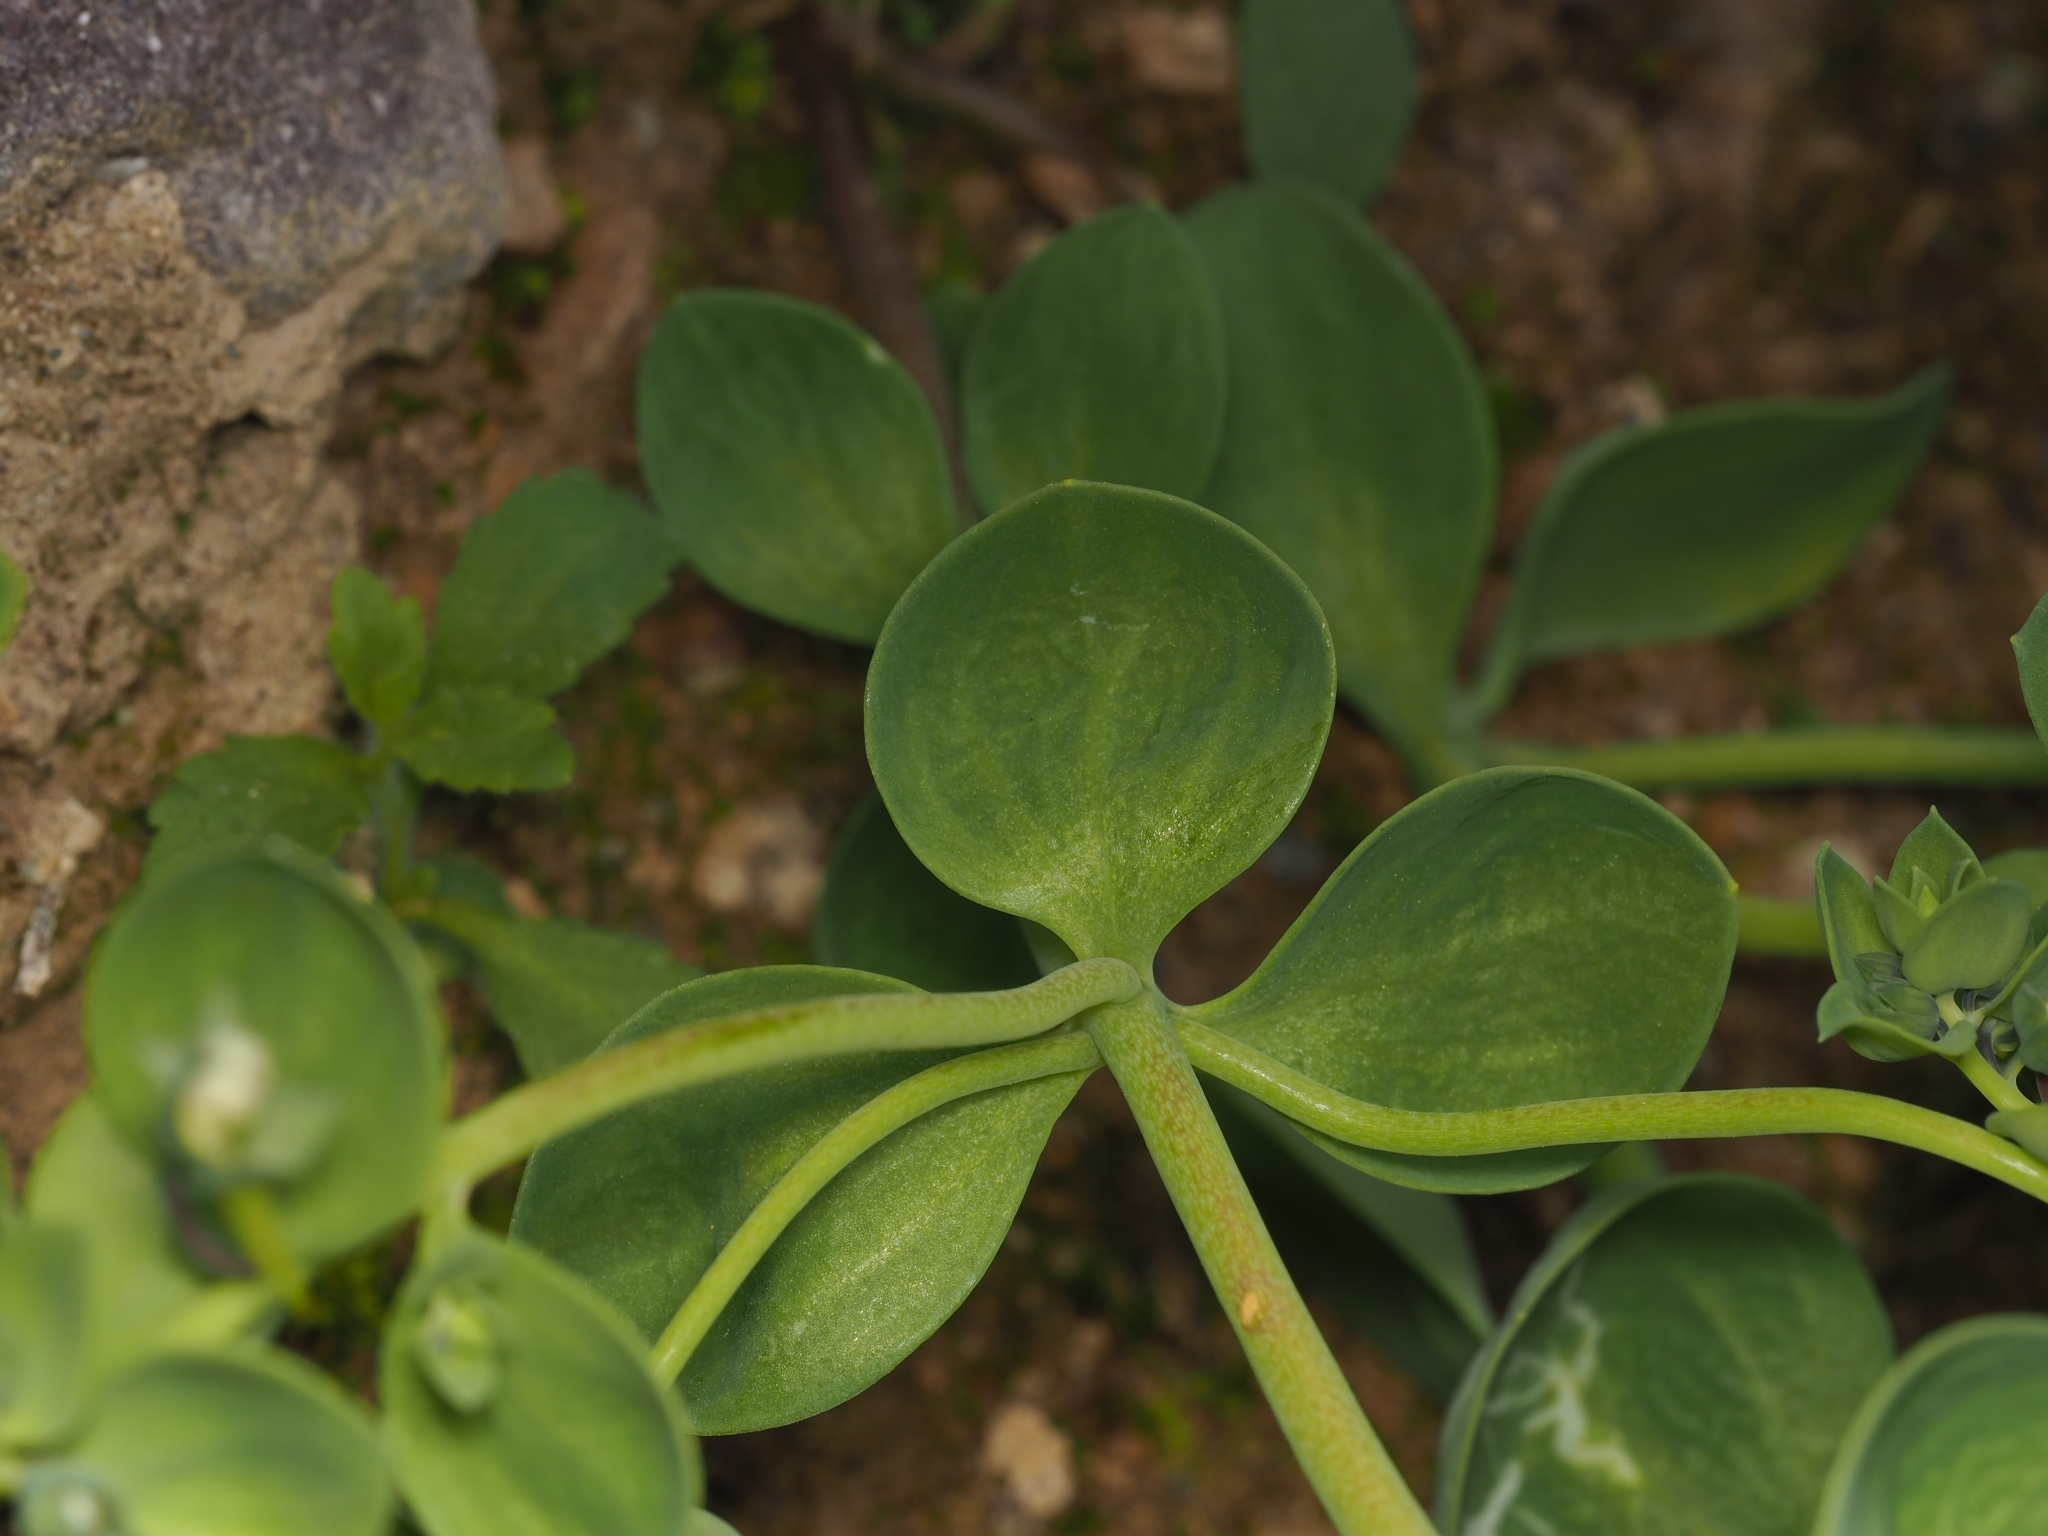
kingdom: Plantae
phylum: Tracheophyta
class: Magnoliopsida
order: Lamiales
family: Plantaginaceae
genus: Linaria
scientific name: Linaria reflexa
